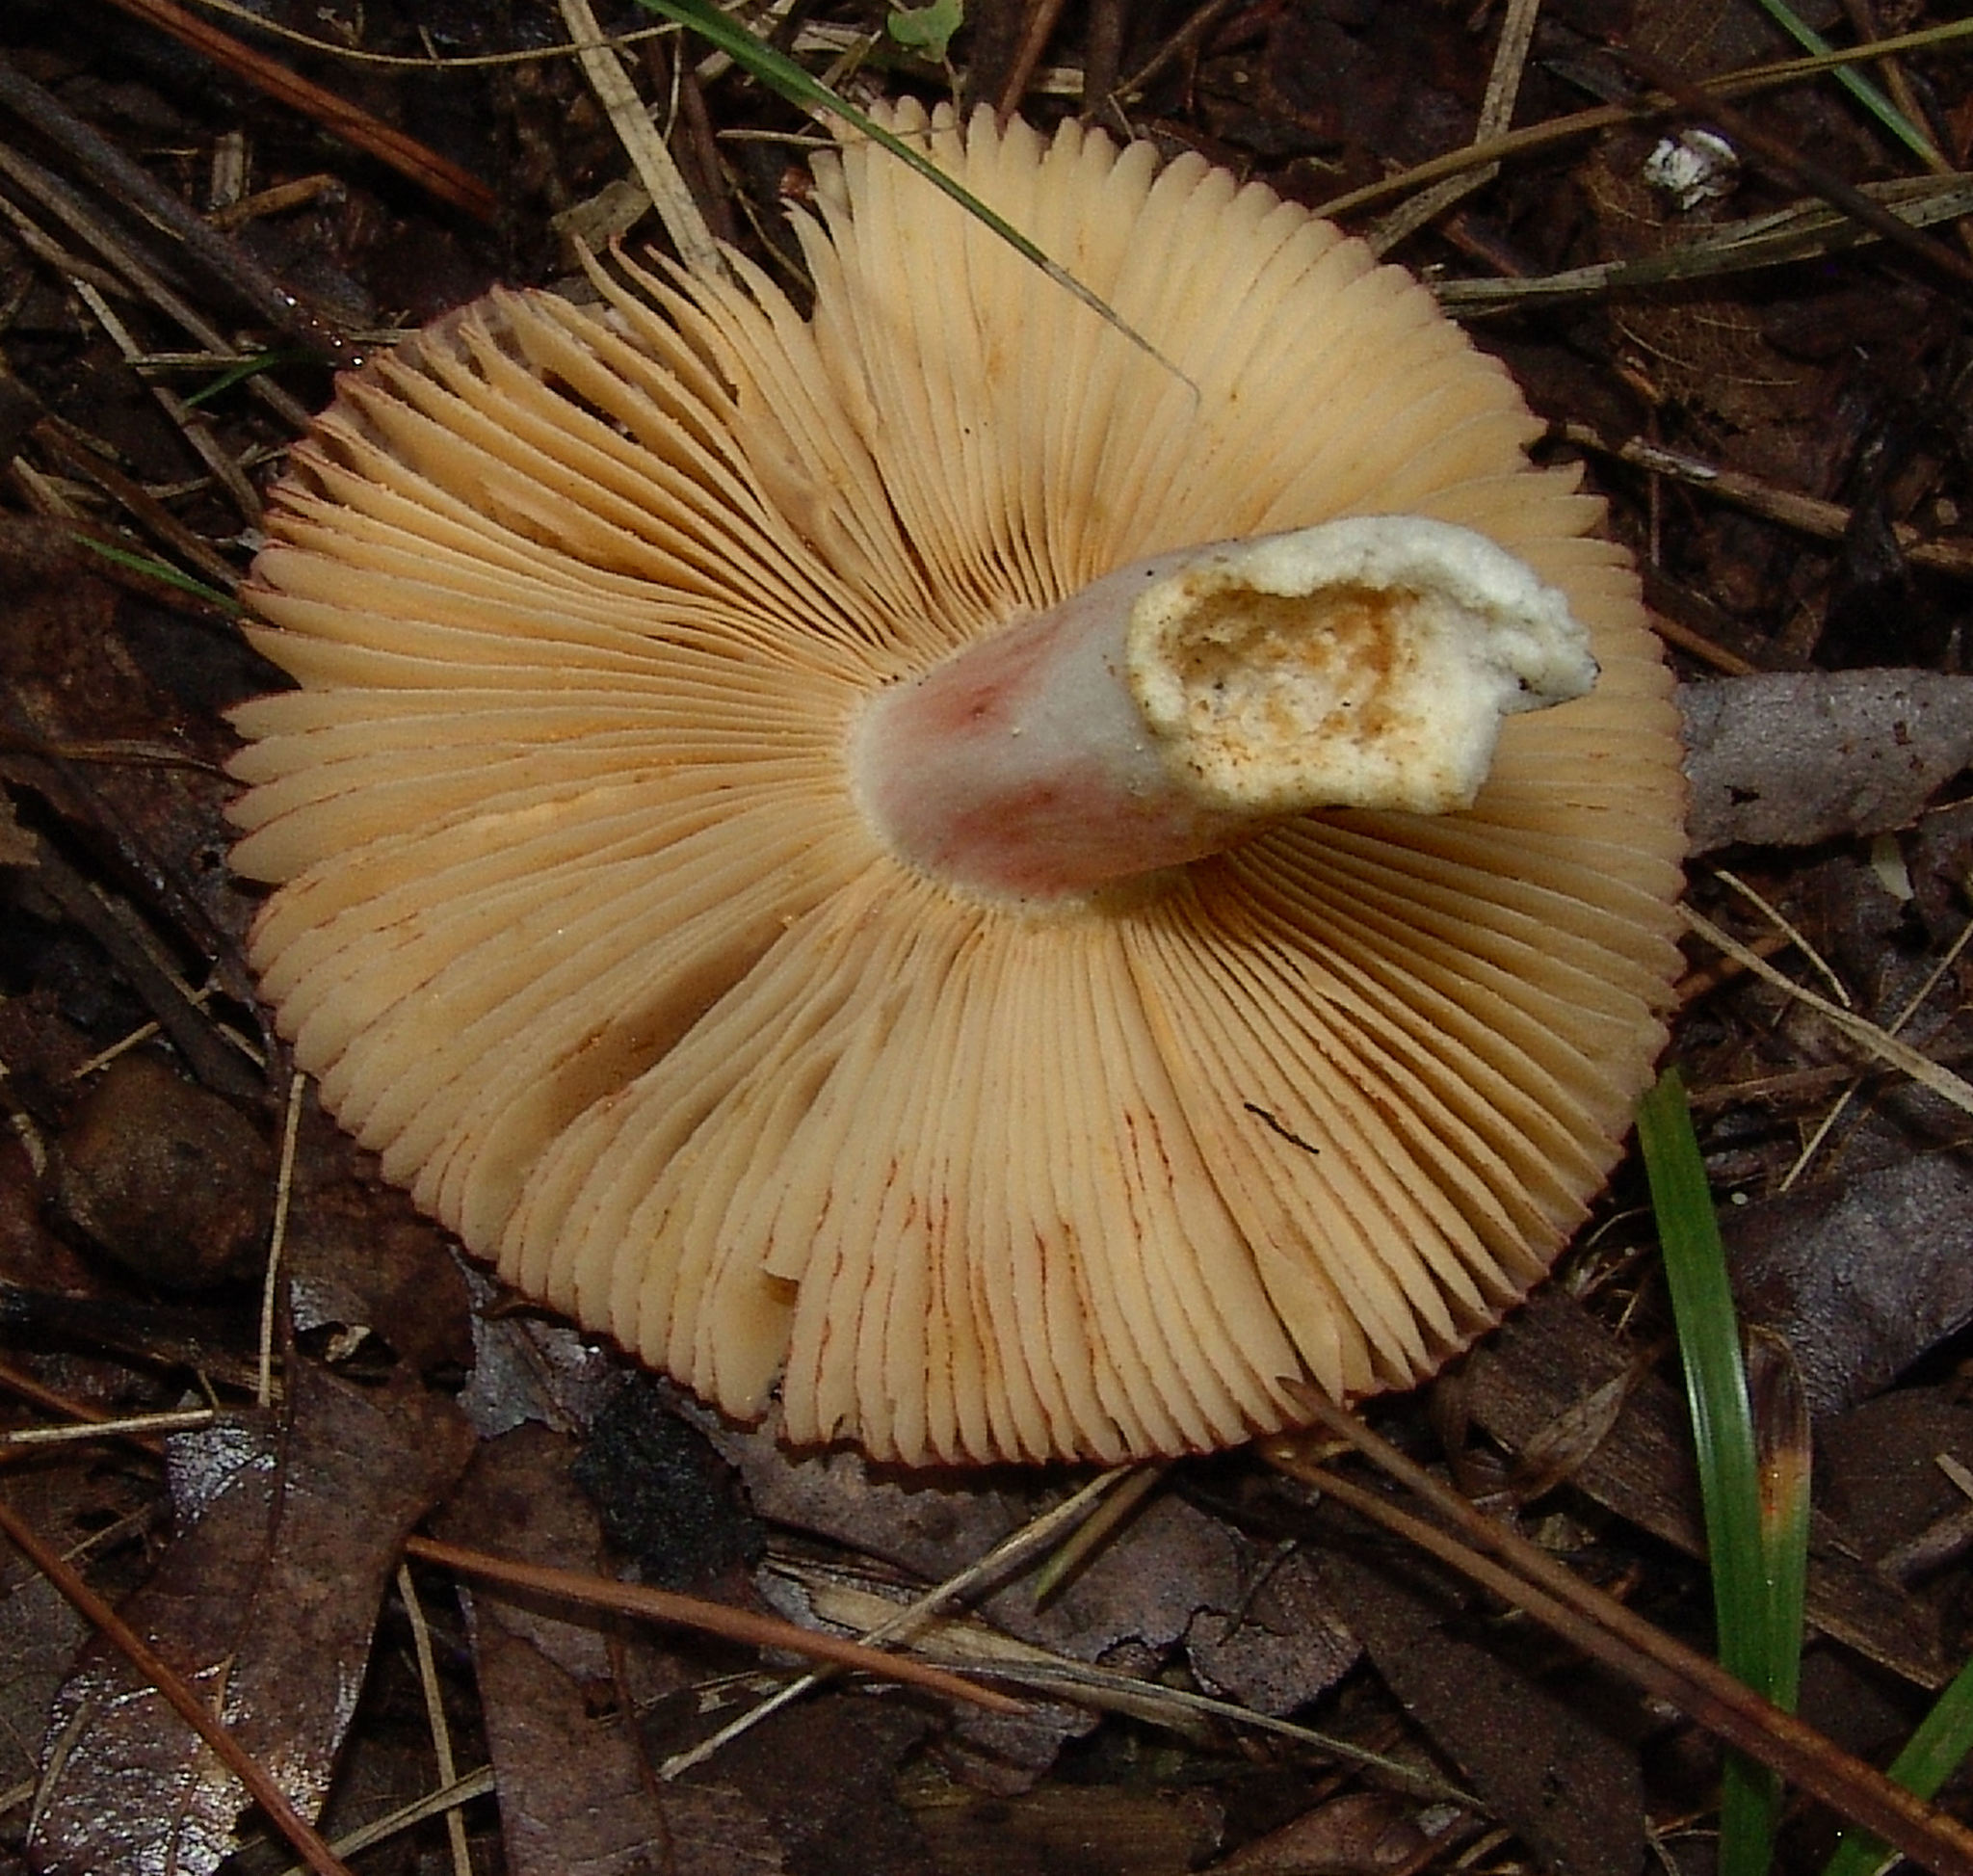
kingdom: Fungi
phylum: Basidiomycota
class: Agaricomycetes
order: Russulales
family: Russulaceae
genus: Russula
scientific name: Russula
